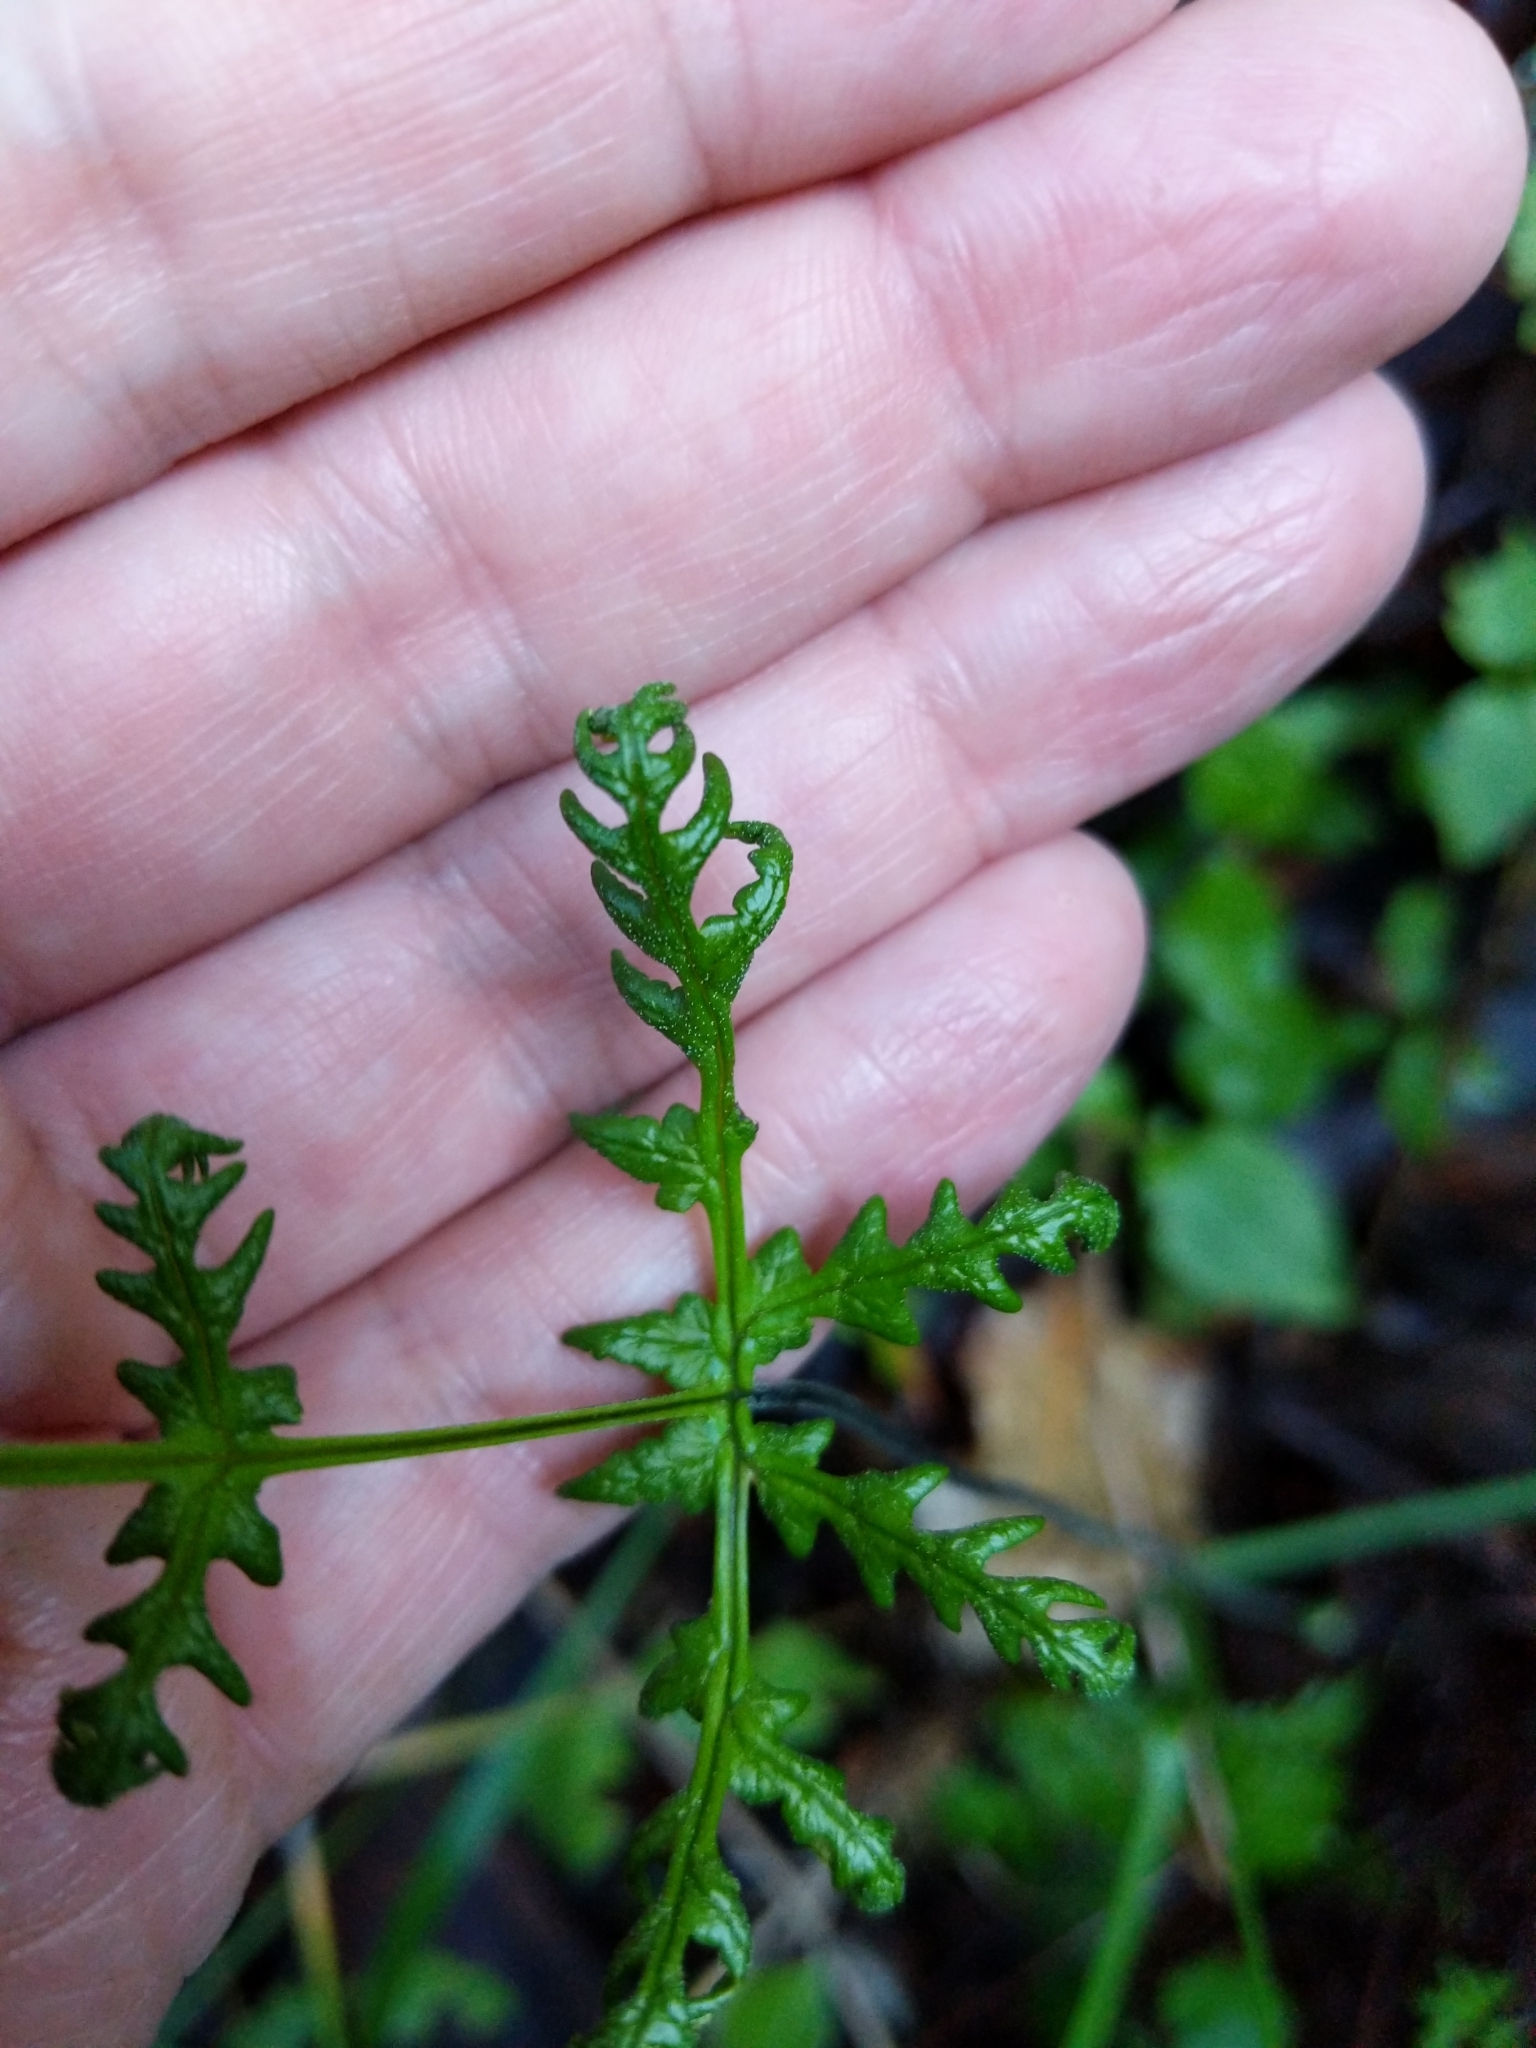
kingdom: Plantae
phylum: Tracheophyta
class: Polypodiopsida
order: Polypodiales
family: Pteridaceae
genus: Pentagramma
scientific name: Pentagramma triangularis
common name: Gold fern
